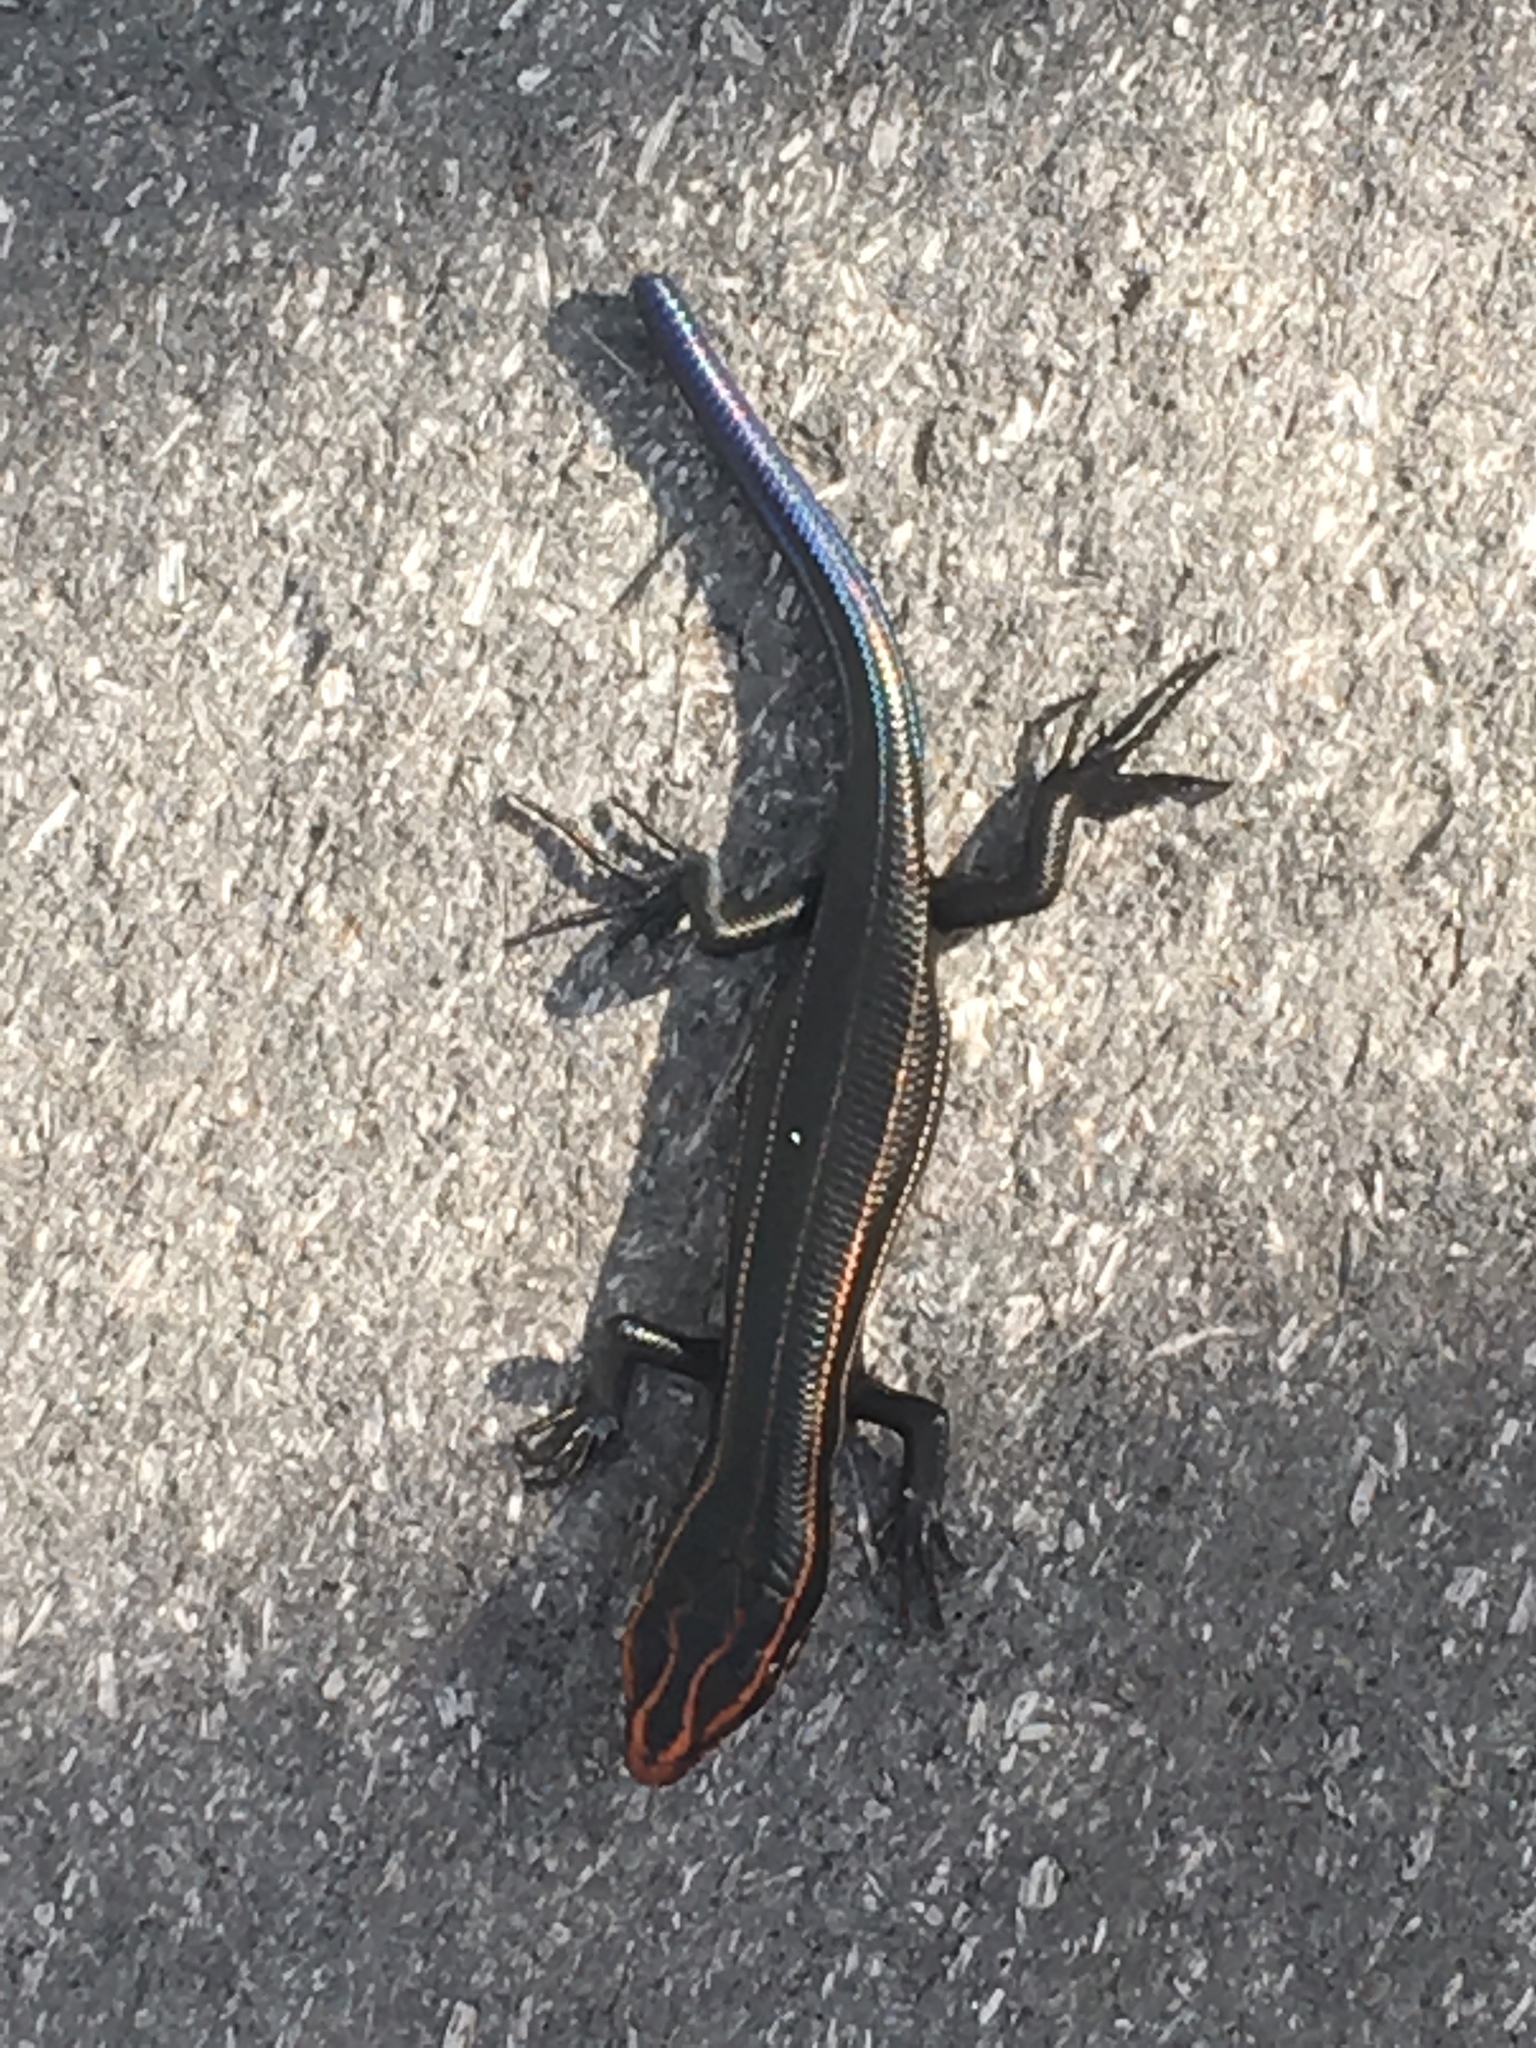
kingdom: Animalia
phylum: Chordata
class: Squamata
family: Scincidae
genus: Plestiodon
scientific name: Plestiodon inexpectatus
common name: Southeastern five-lined skink
